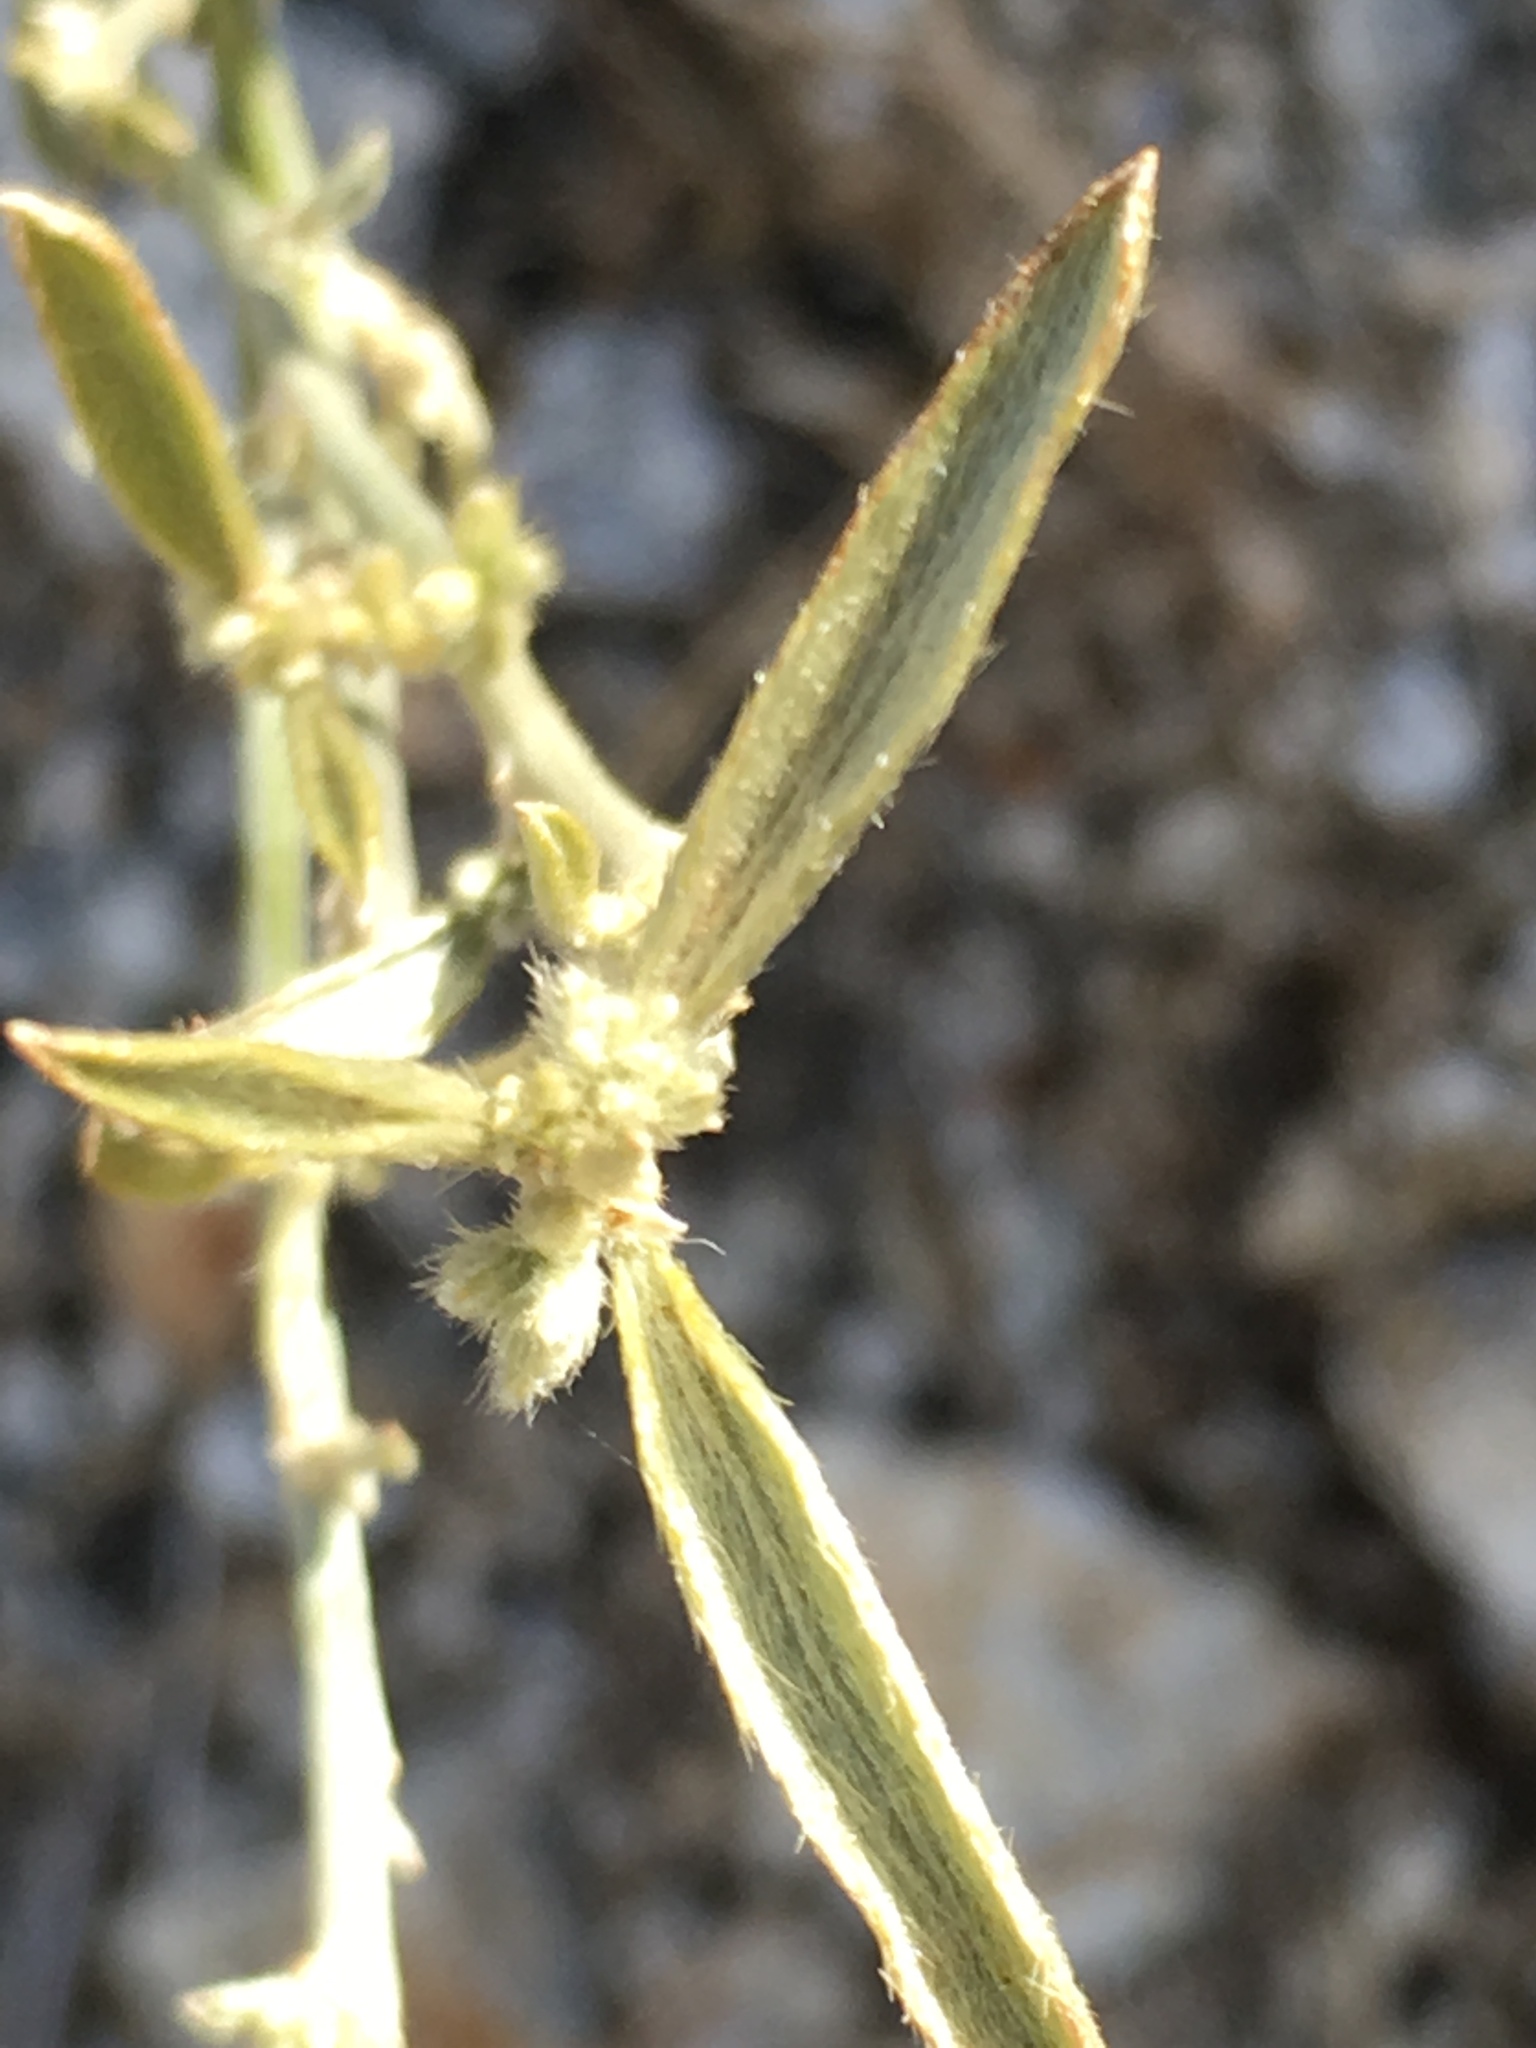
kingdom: Plantae
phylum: Tracheophyta
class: Magnoliopsida
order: Malpighiales
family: Euphorbiaceae
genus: Ditaxis
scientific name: Ditaxis lanceolata
